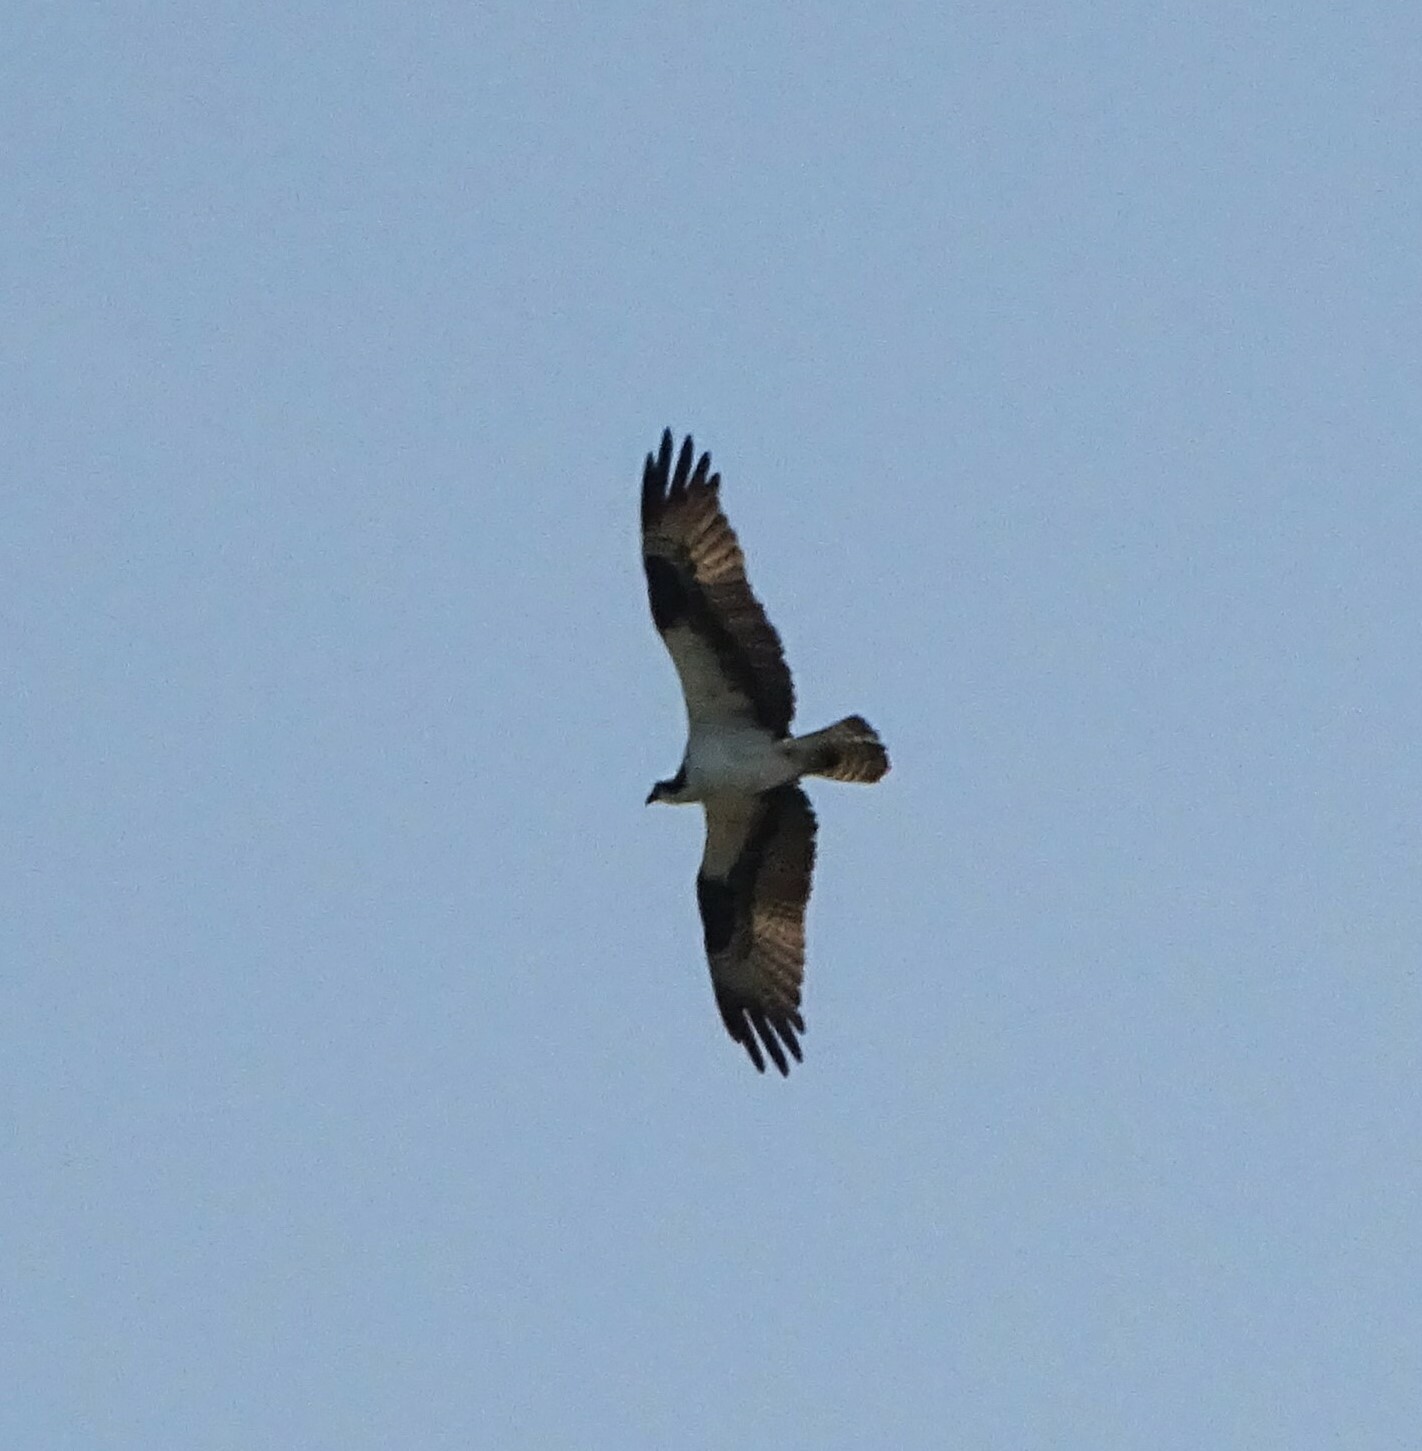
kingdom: Animalia
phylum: Chordata
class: Aves
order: Accipitriformes
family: Pandionidae
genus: Pandion
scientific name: Pandion haliaetus
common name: Osprey
